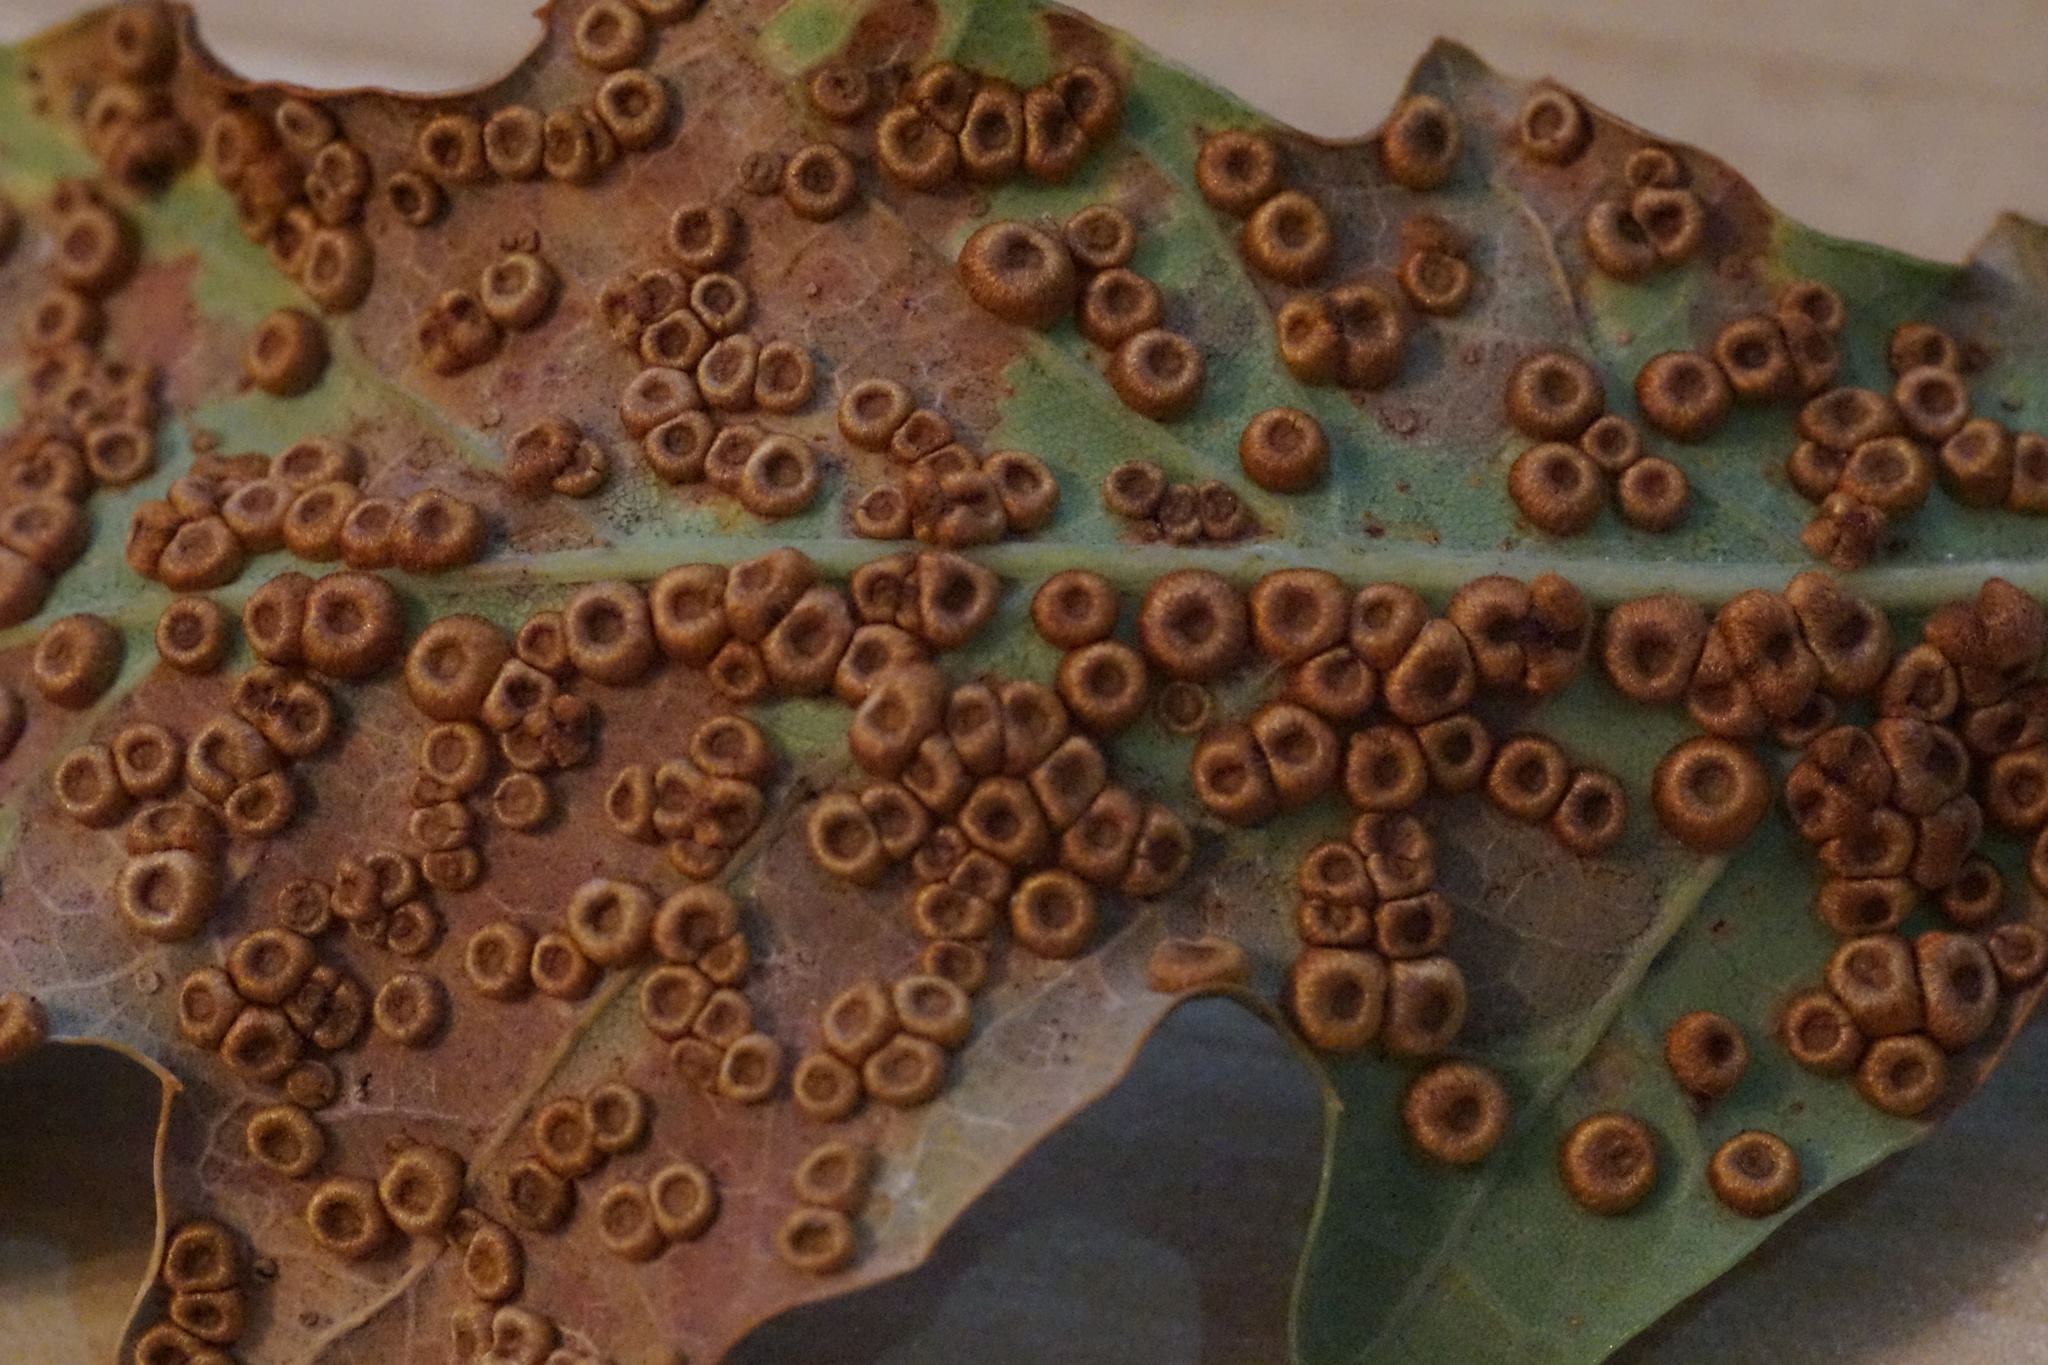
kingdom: Animalia
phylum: Arthropoda
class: Insecta
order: Hymenoptera
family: Cynipidae
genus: Neuroterus
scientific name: Neuroterus numismalis
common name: Silk-button spangle gall
